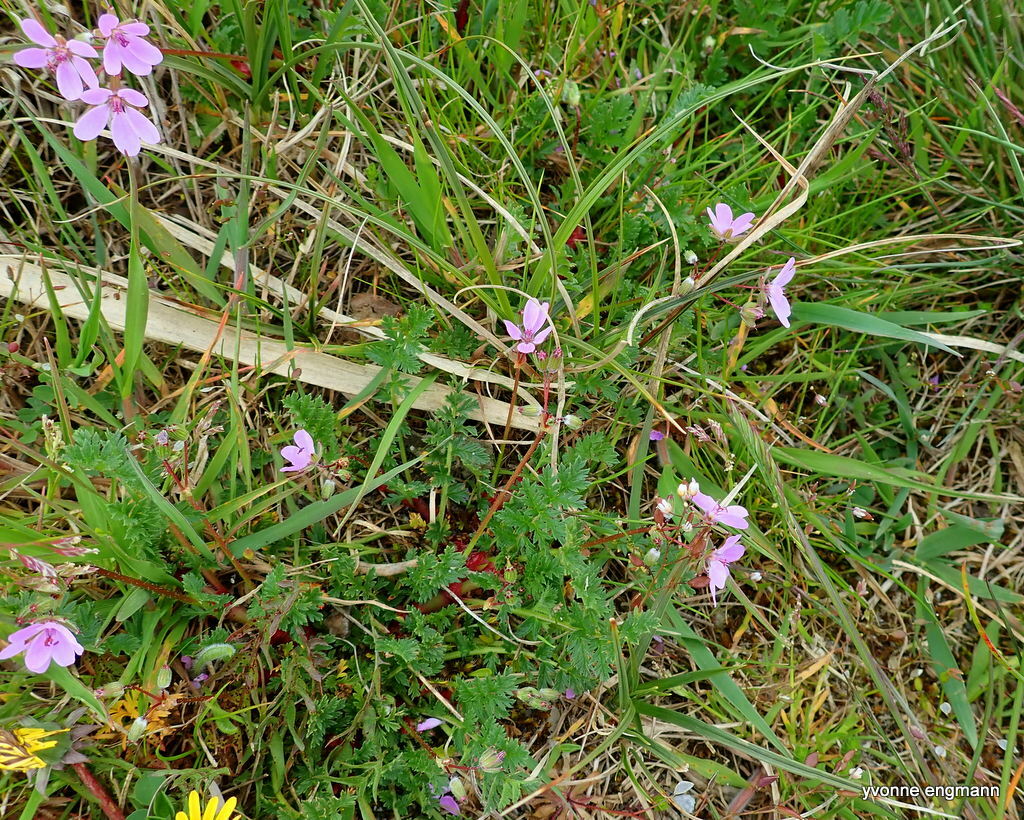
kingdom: Plantae
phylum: Tracheophyta
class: Magnoliopsida
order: Geraniales
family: Geraniaceae
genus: Erodium
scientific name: Erodium cicutarium
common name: Common stork's-bill
